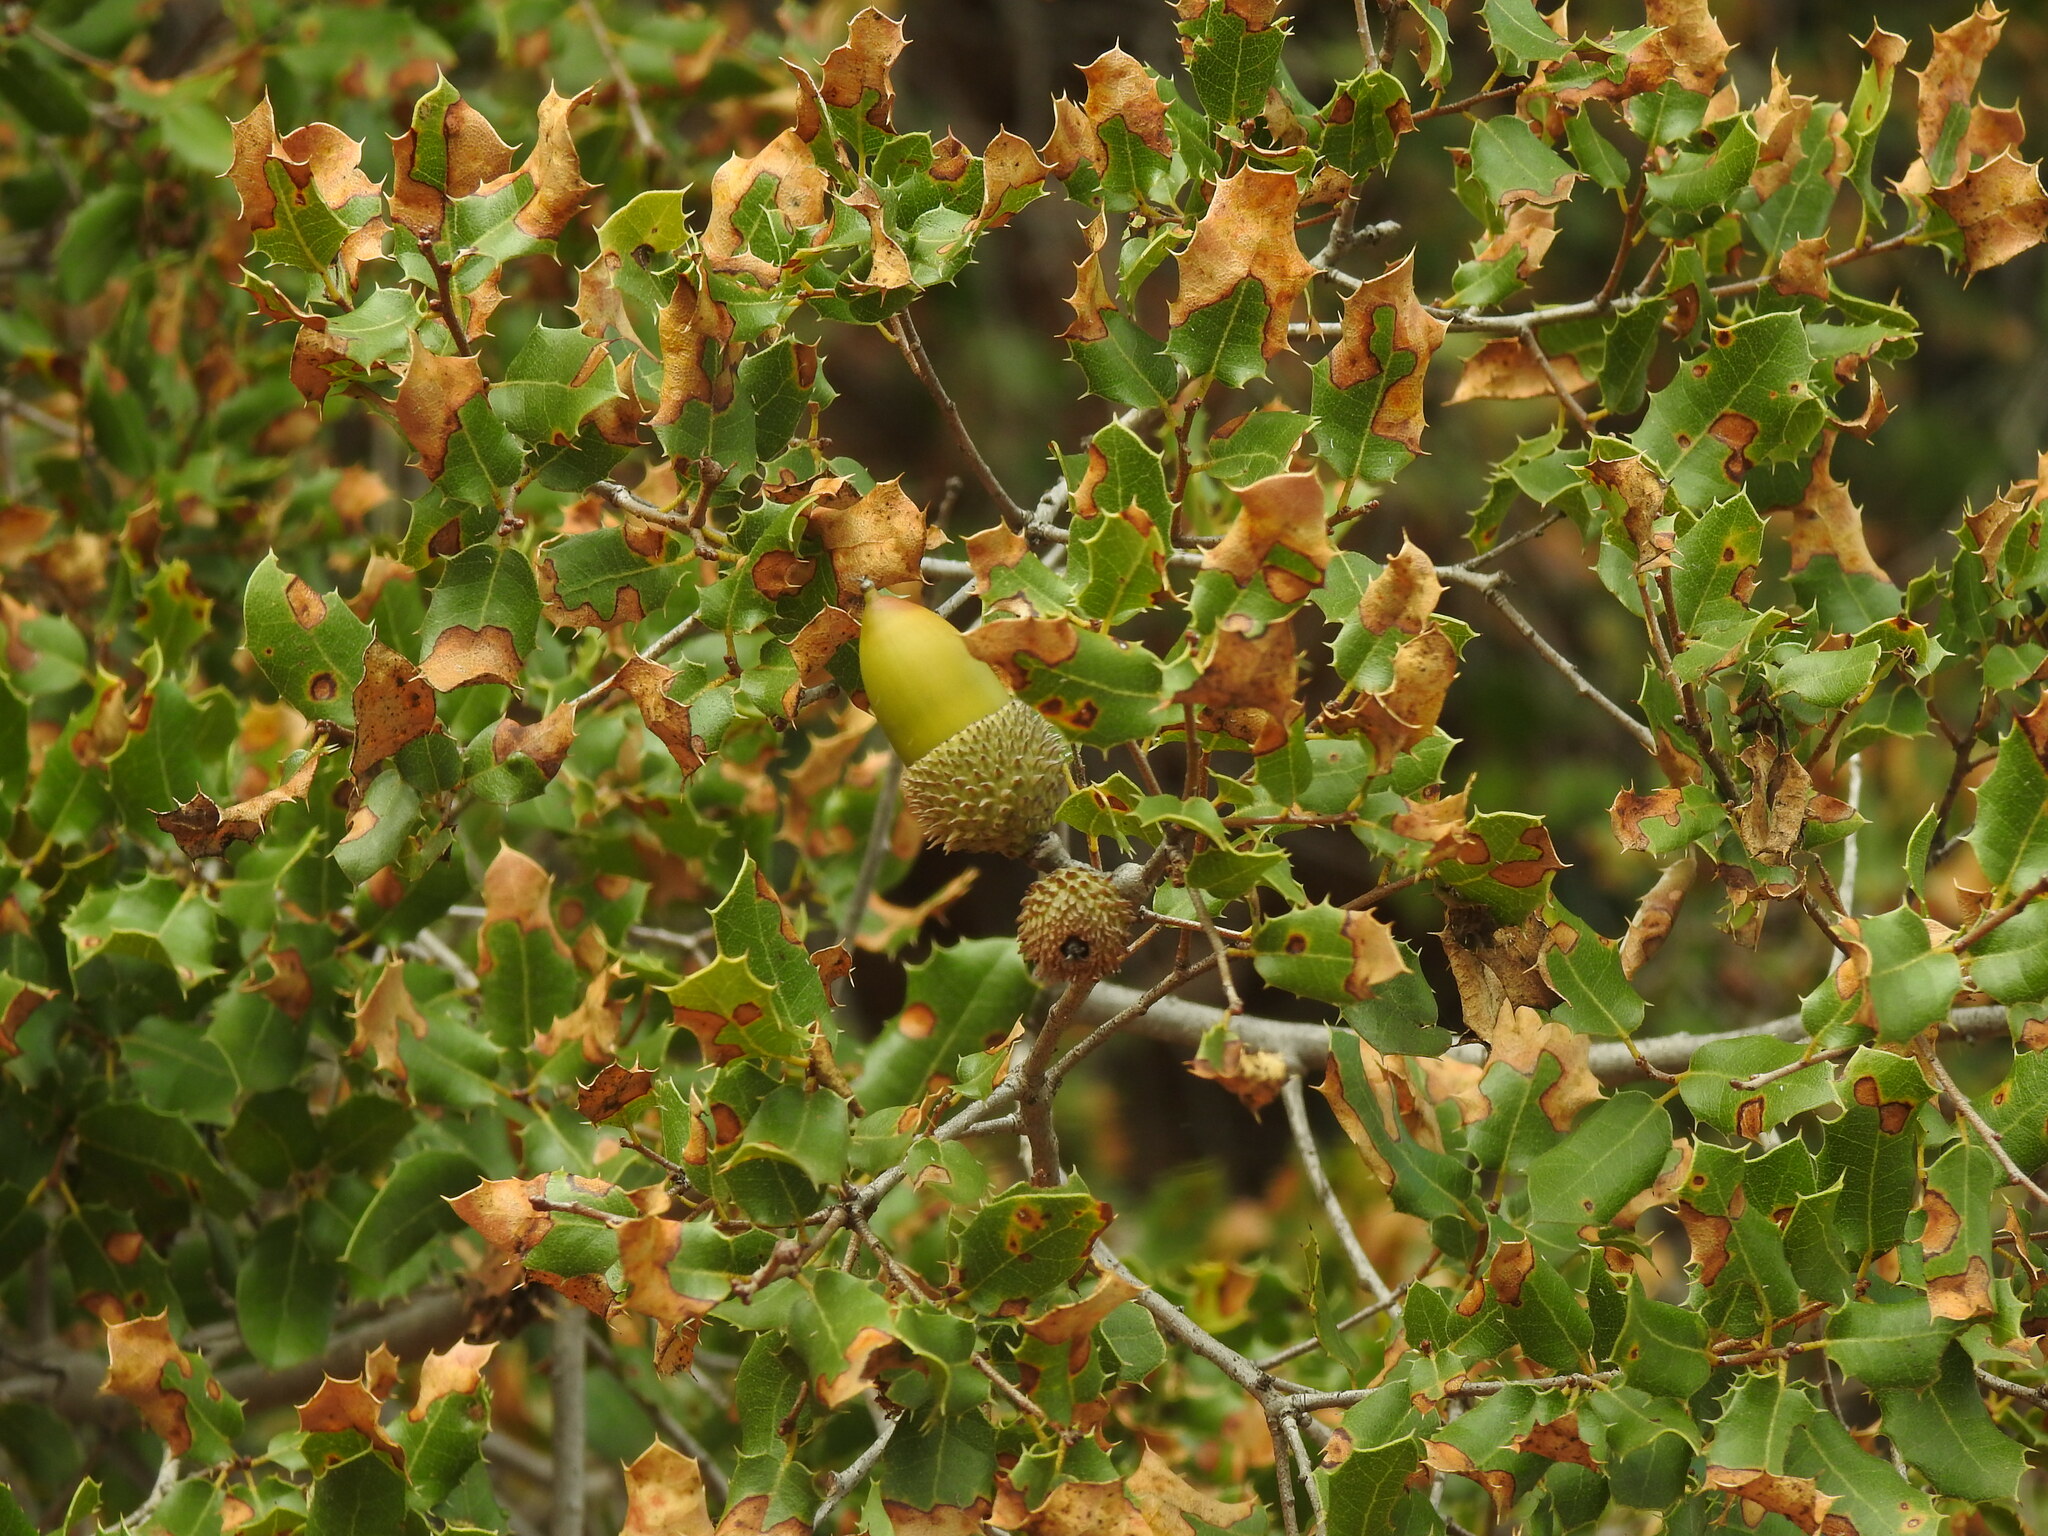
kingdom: Plantae
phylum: Tracheophyta
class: Magnoliopsida
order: Fagales
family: Fagaceae
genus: Quercus
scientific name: Quercus coccifera
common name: Kermes oak
